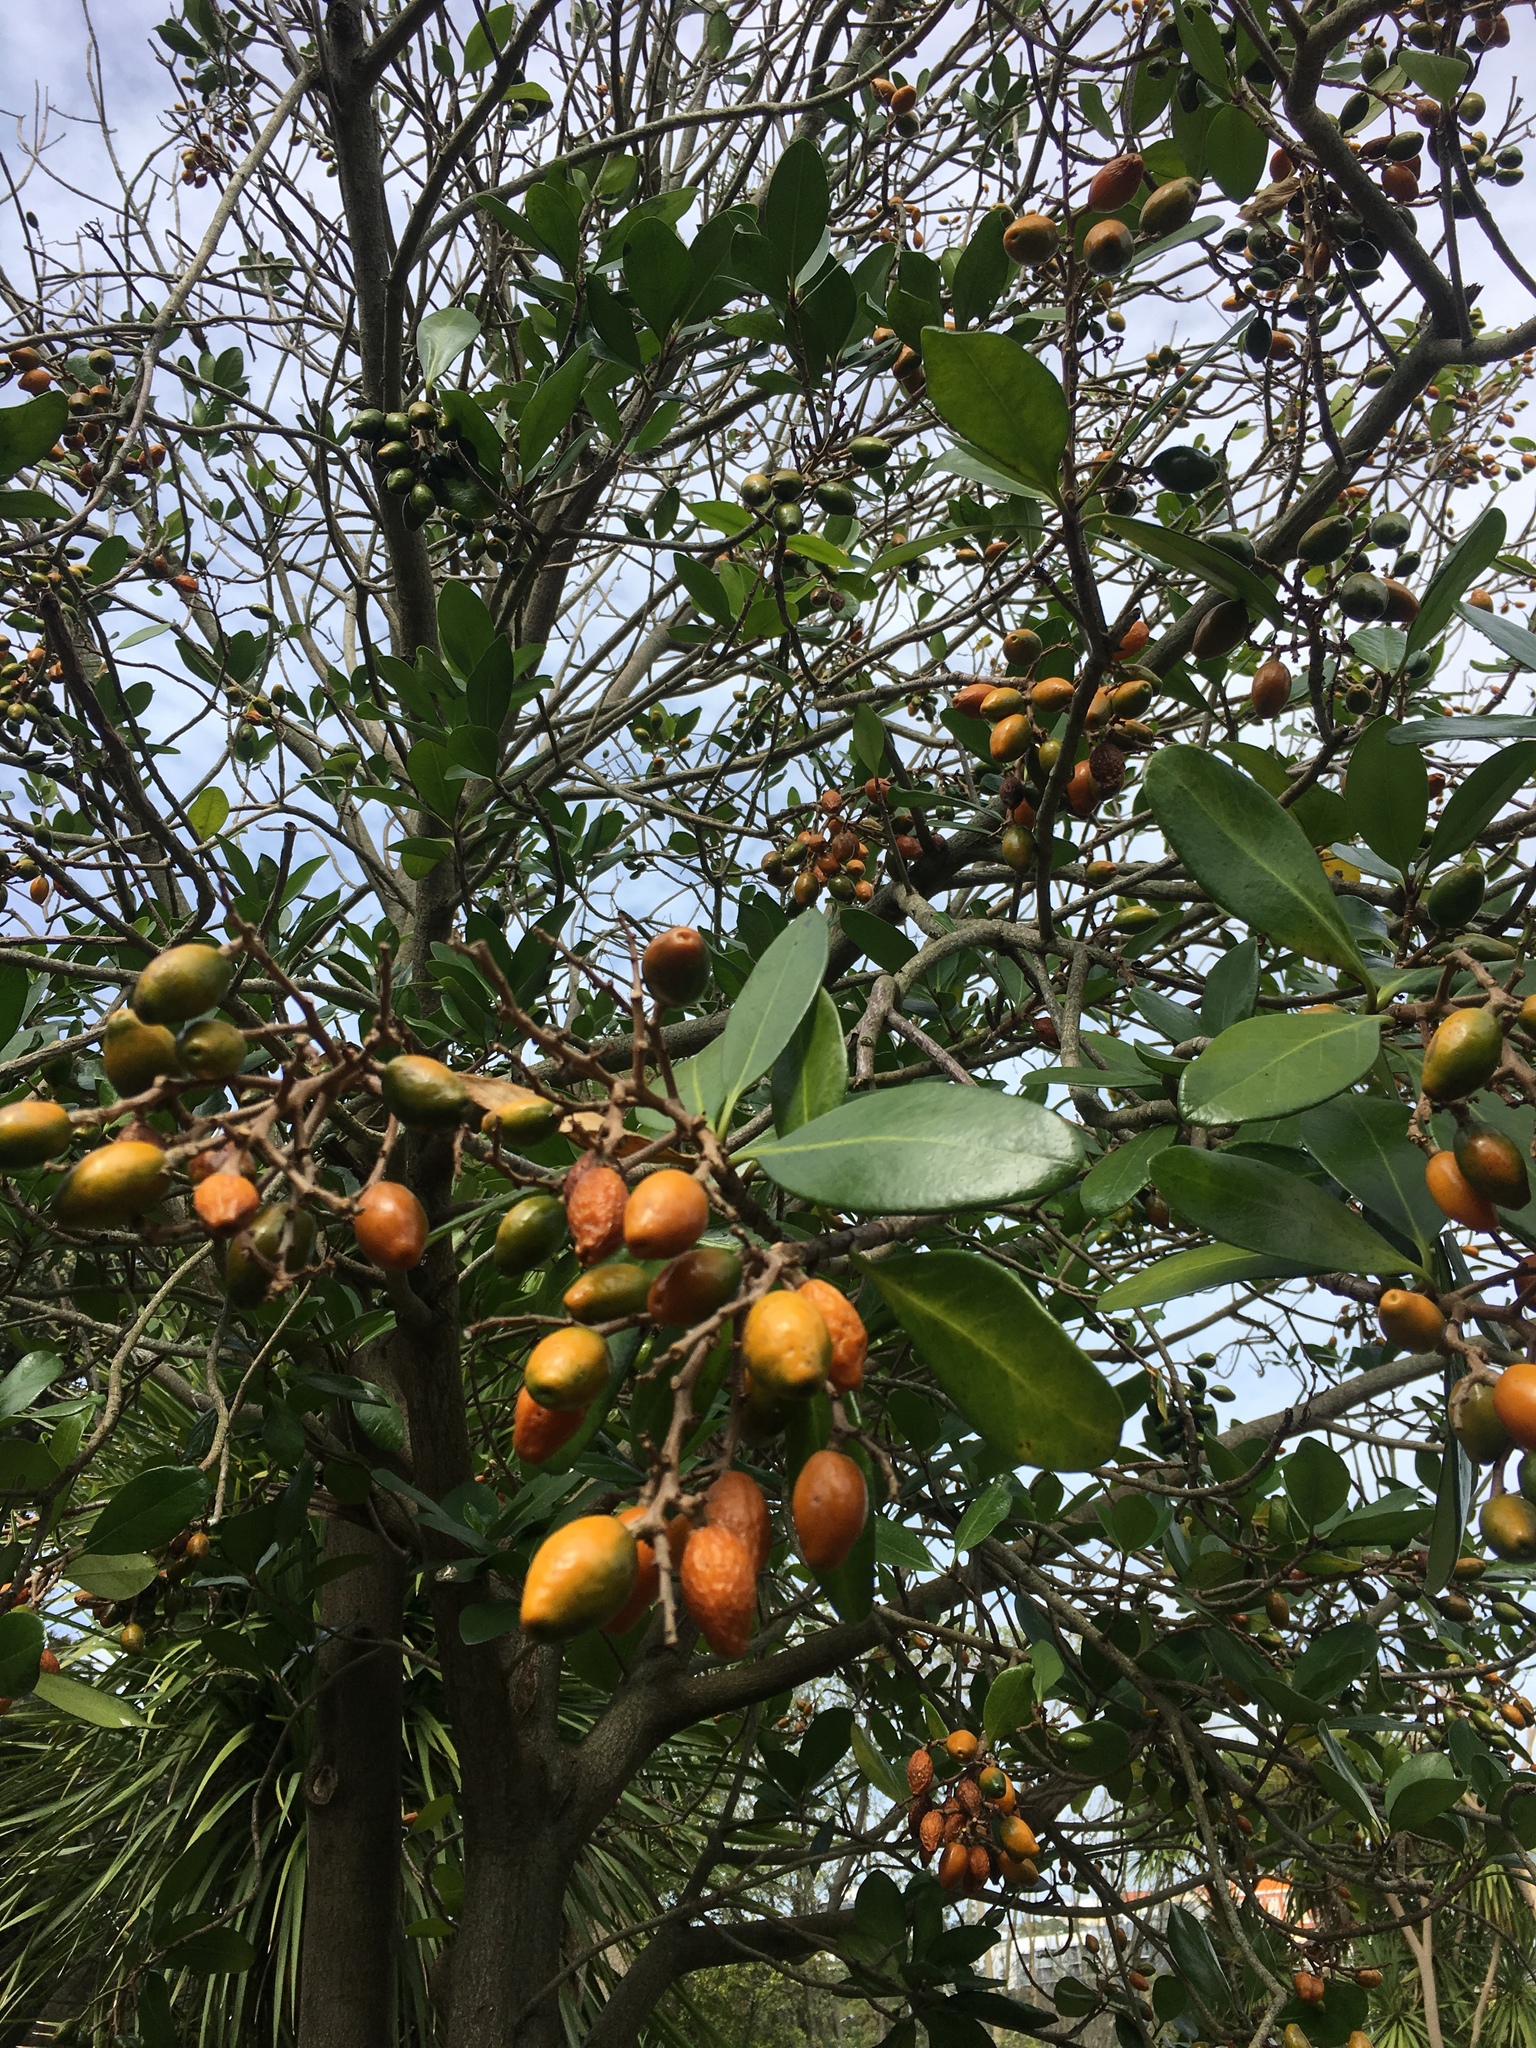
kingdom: Plantae
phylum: Tracheophyta
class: Magnoliopsida
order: Cucurbitales
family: Corynocarpaceae
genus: Corynocarpus
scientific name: Corynocarpus laevigatus
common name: New zealand laurel
